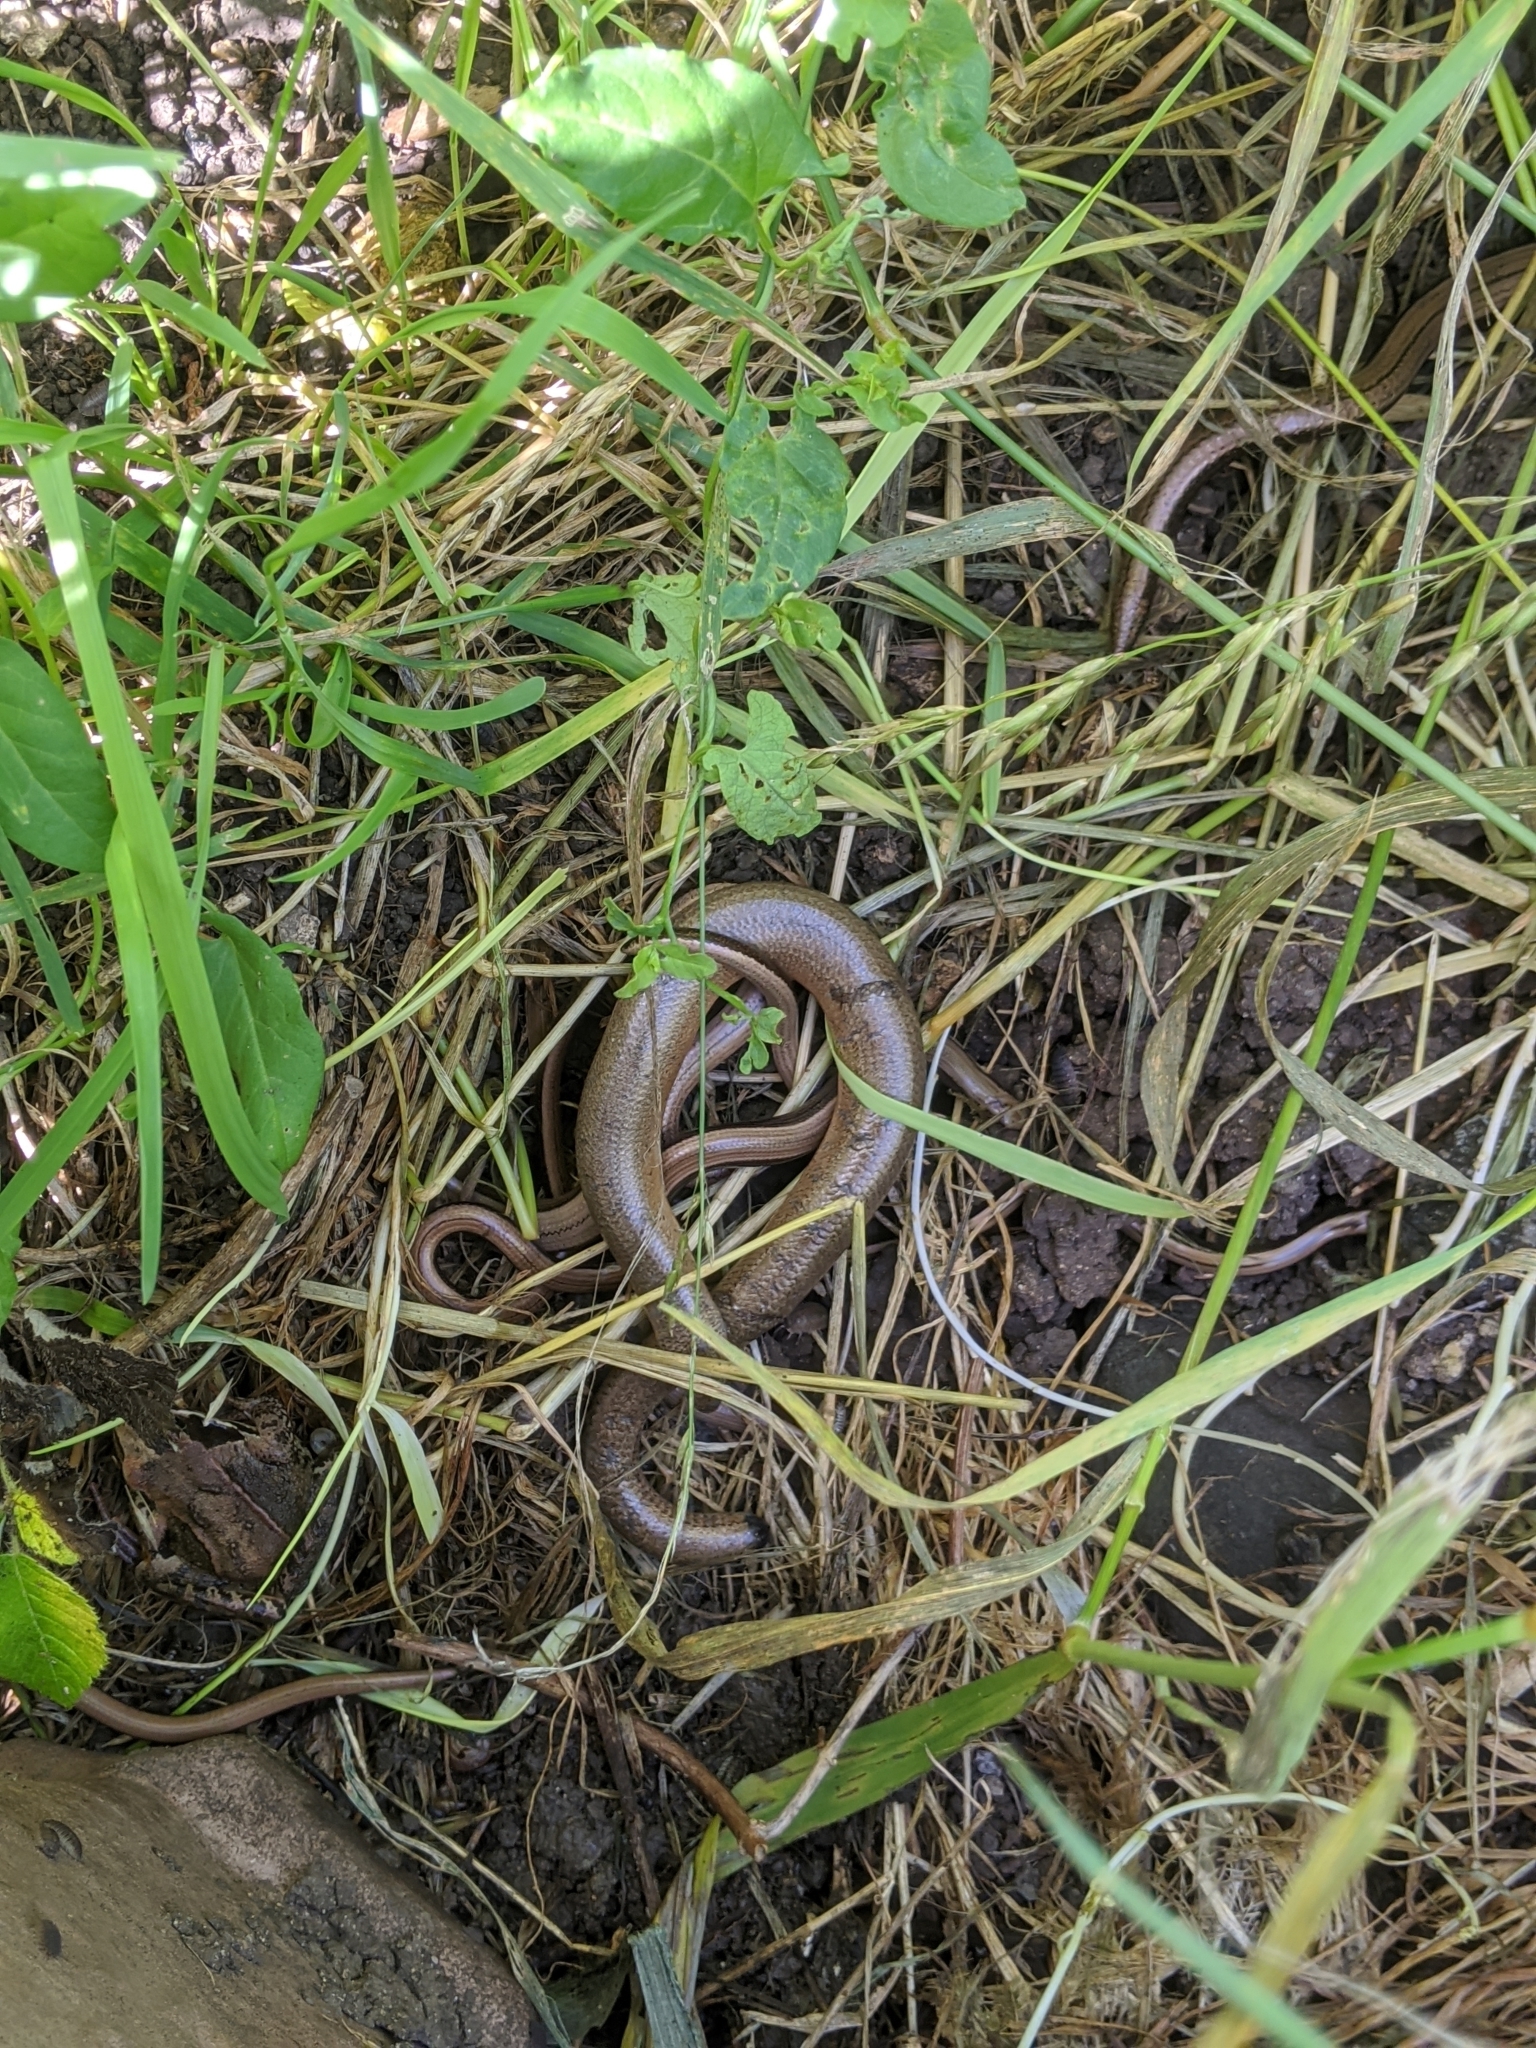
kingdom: Animalia
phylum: Chordata
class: Squamata
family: Anguidae
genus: Anguis
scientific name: Anguis fragilis
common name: Slow worm
